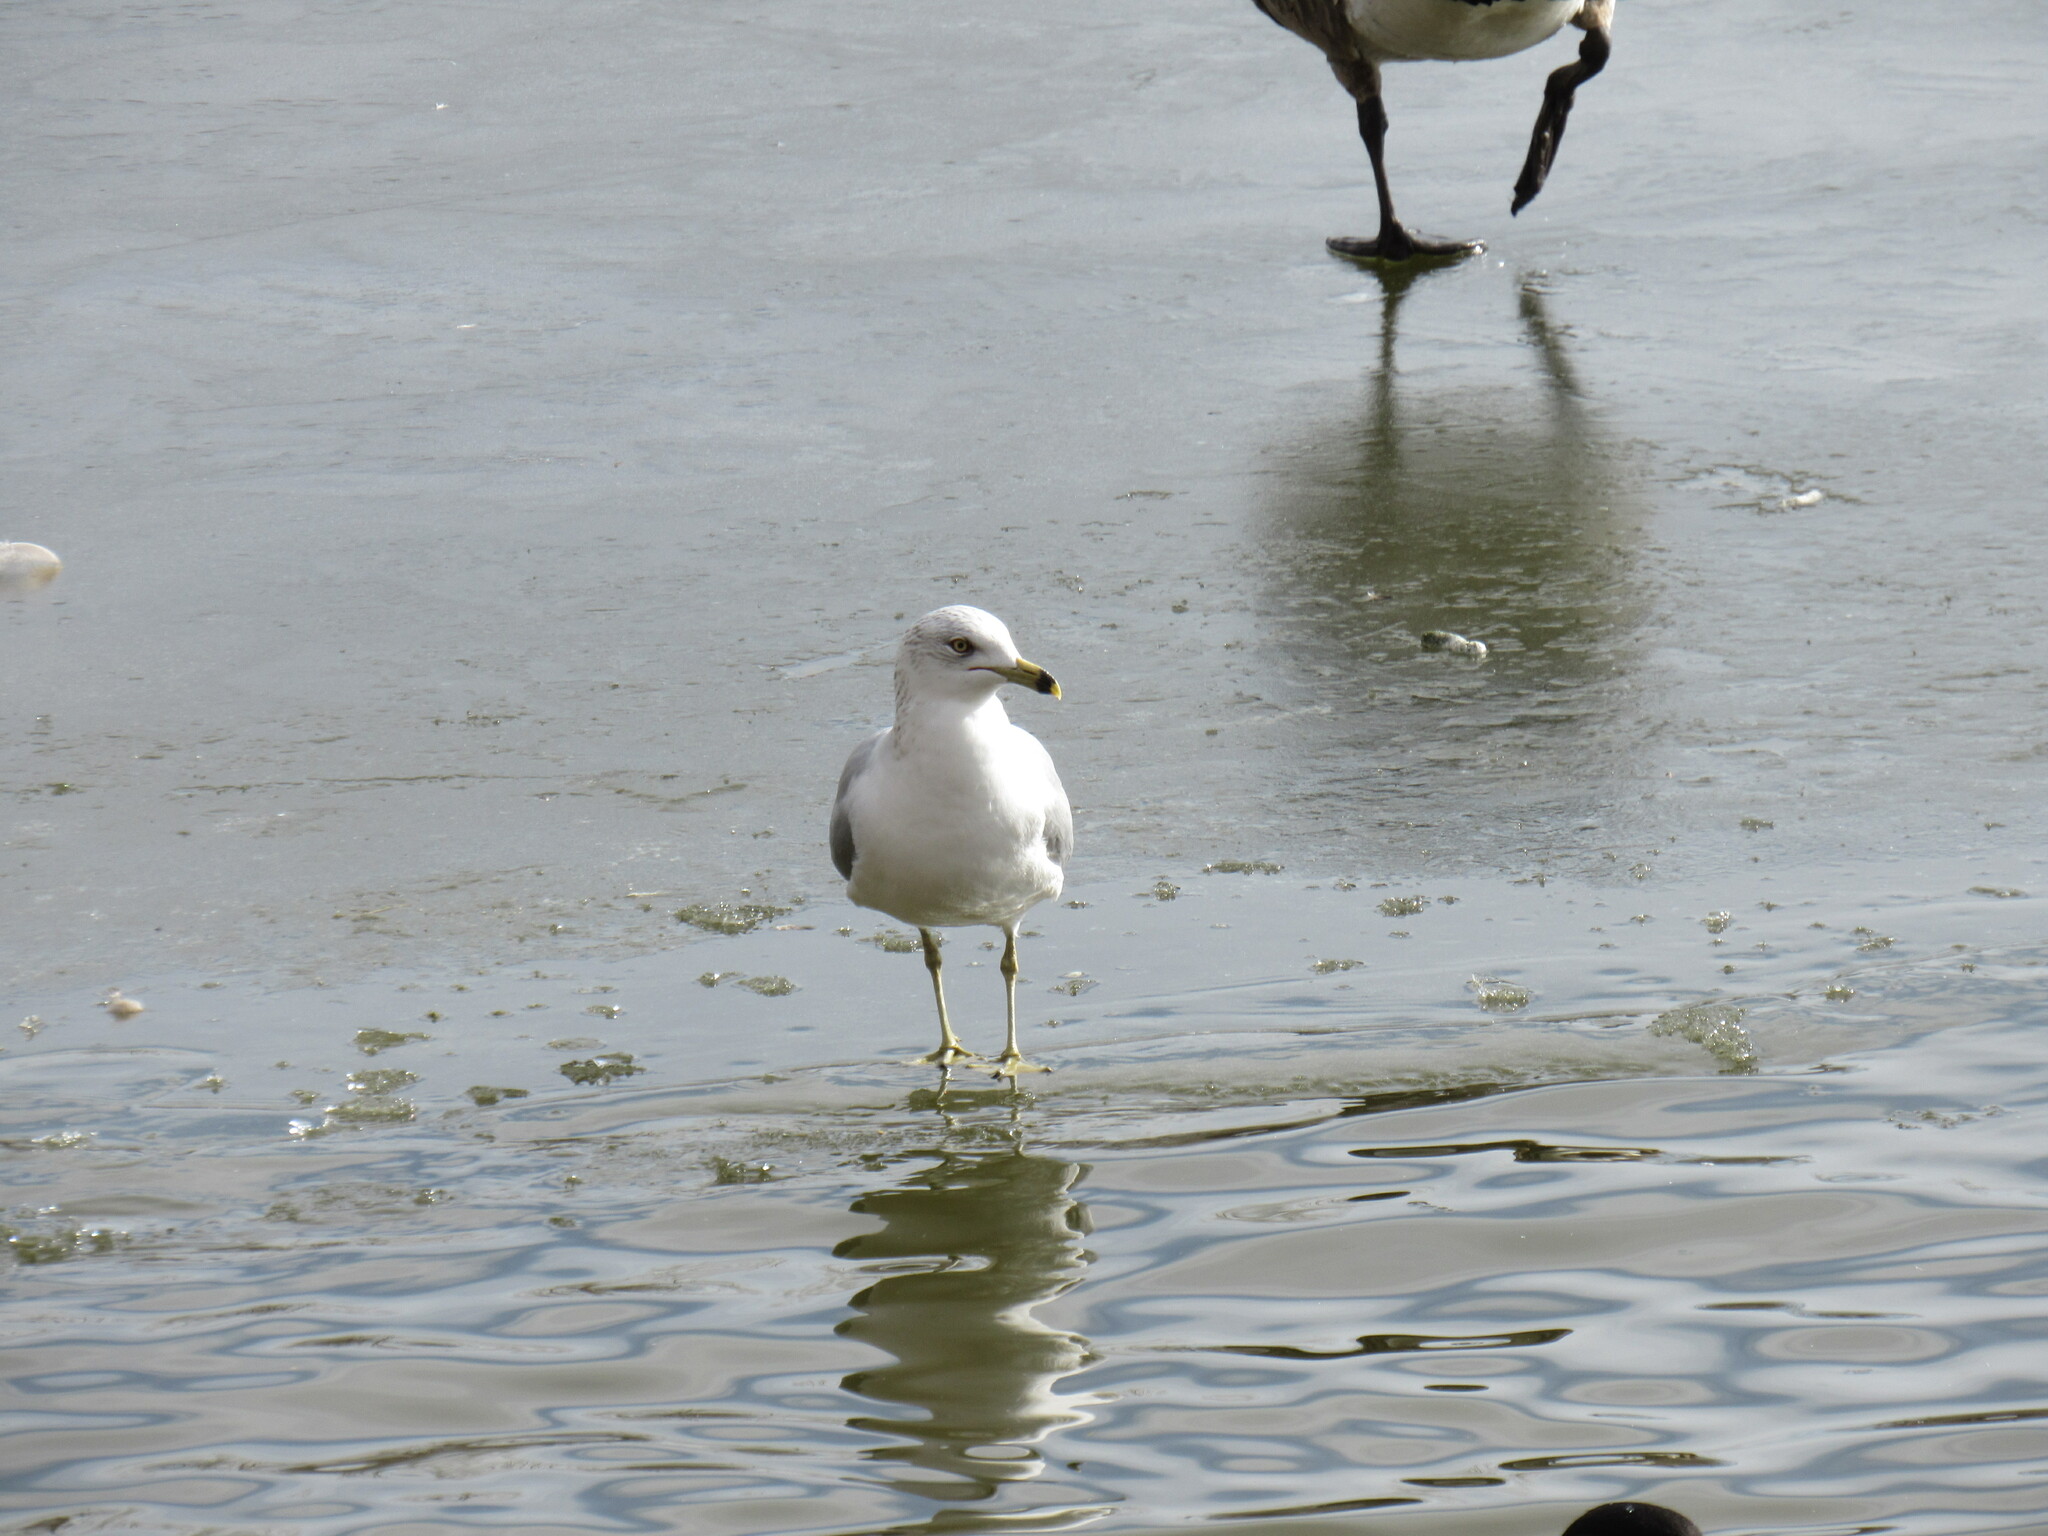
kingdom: Animalia
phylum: Chordata
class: Aves
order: Charadriiformes
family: Laridae
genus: Larus
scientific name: Larus delawarensis
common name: Ring-billed gull
